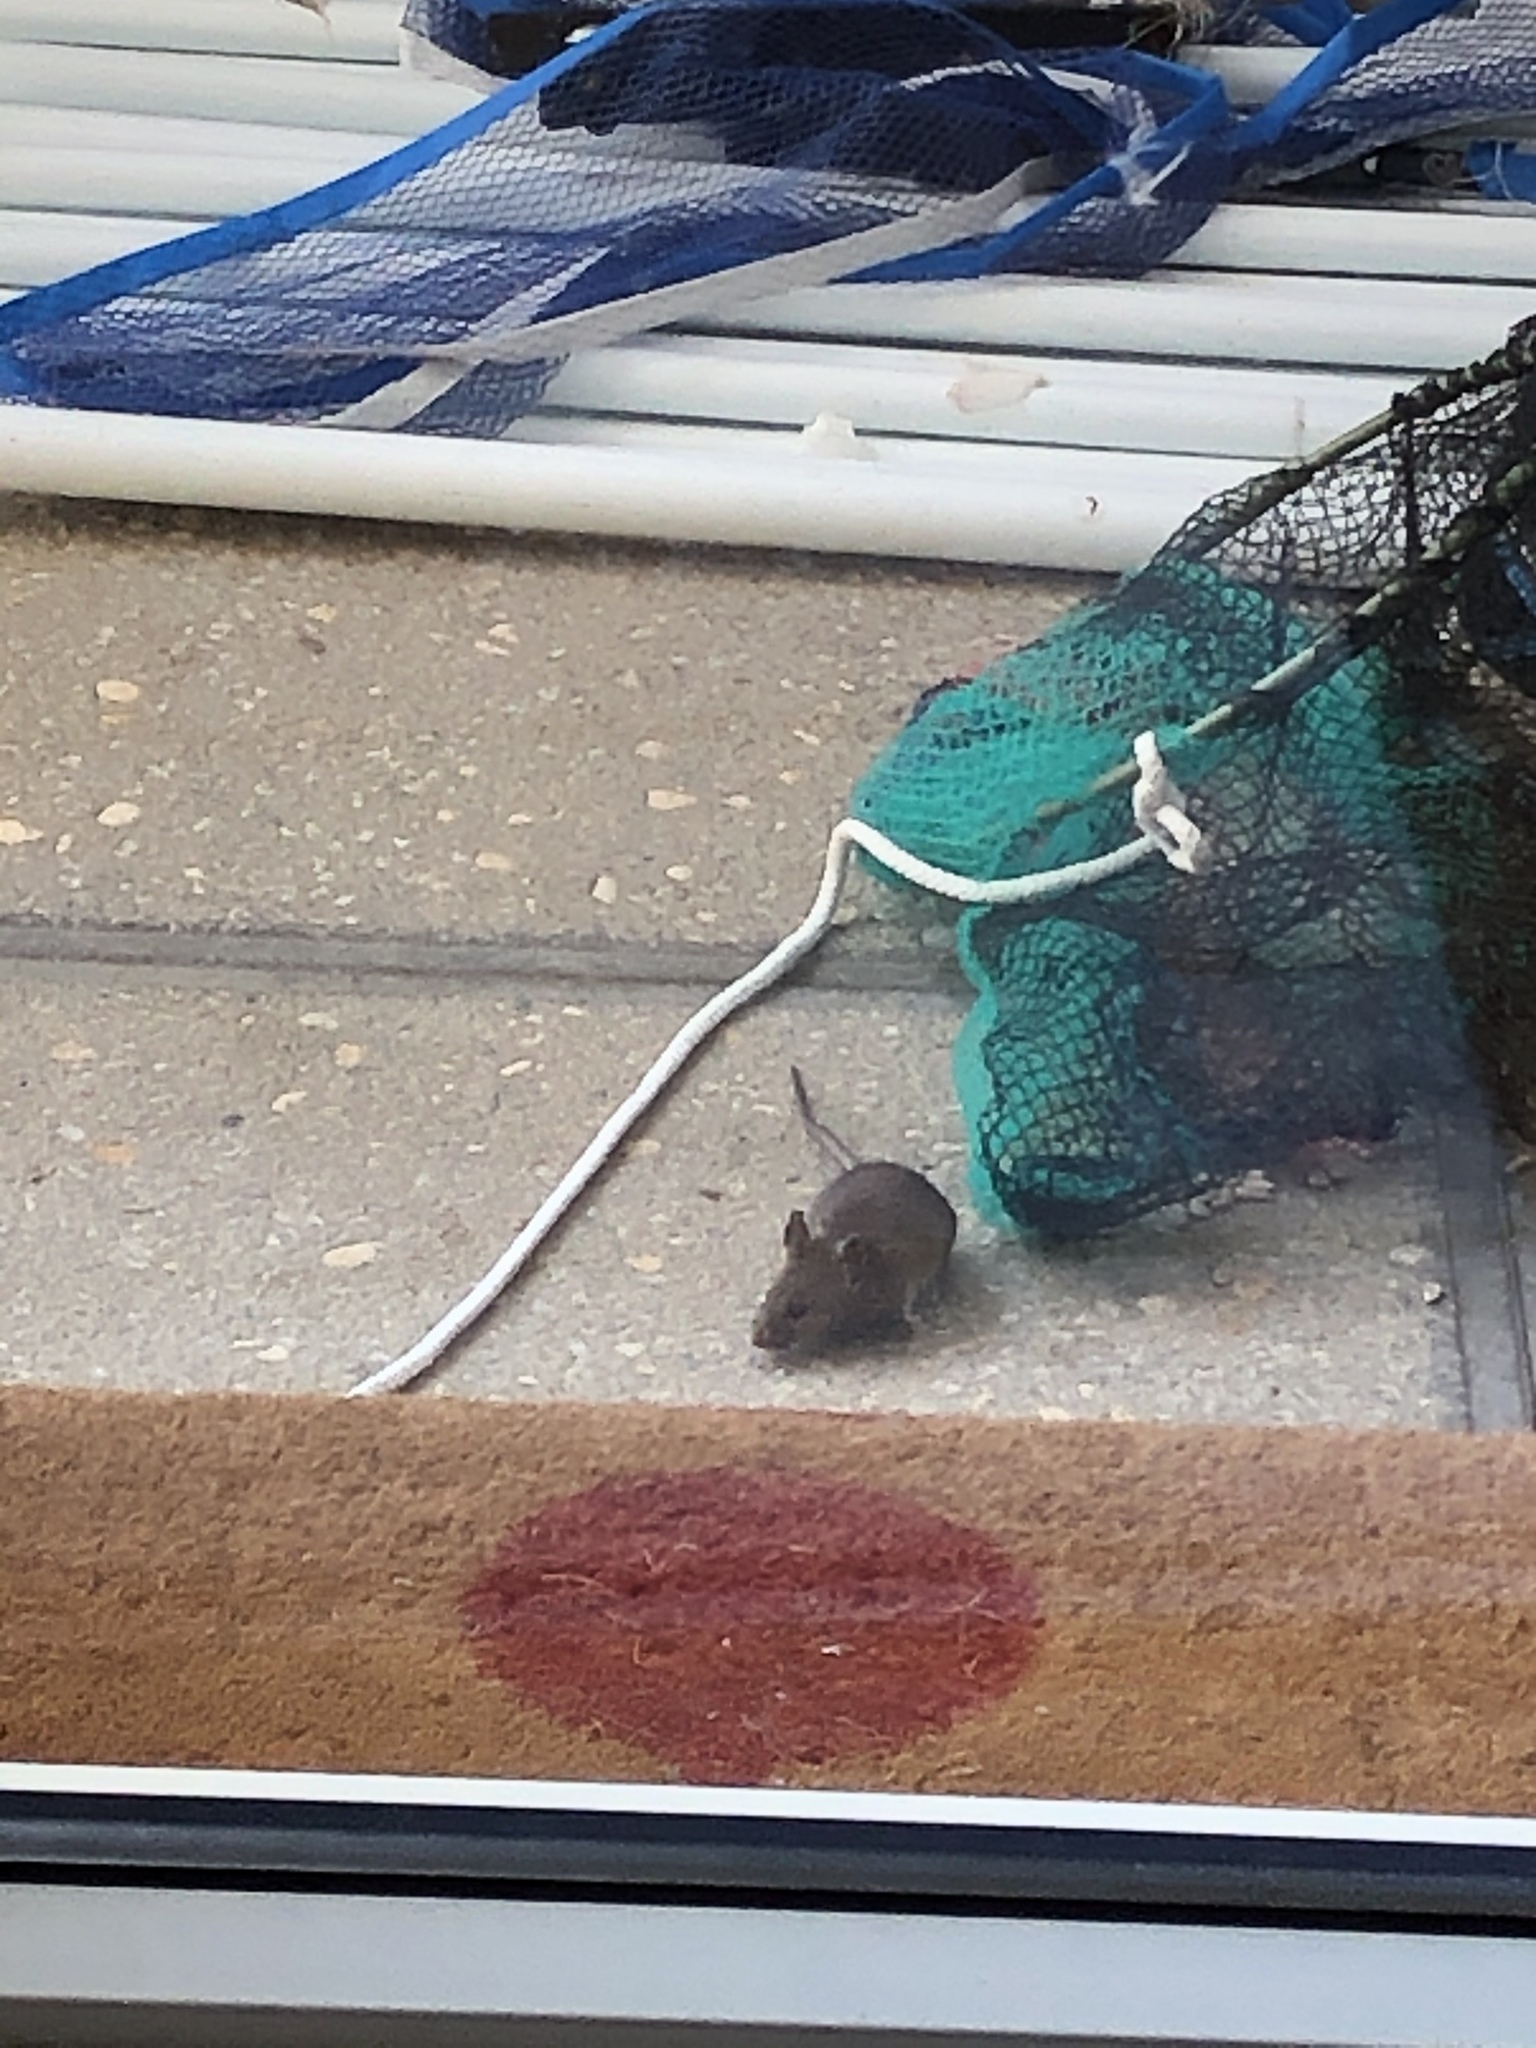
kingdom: Animalia
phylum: Chordata
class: Mammalia
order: Rodentia
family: Muridae
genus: Mus
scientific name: Mus musculus
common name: House mouse
